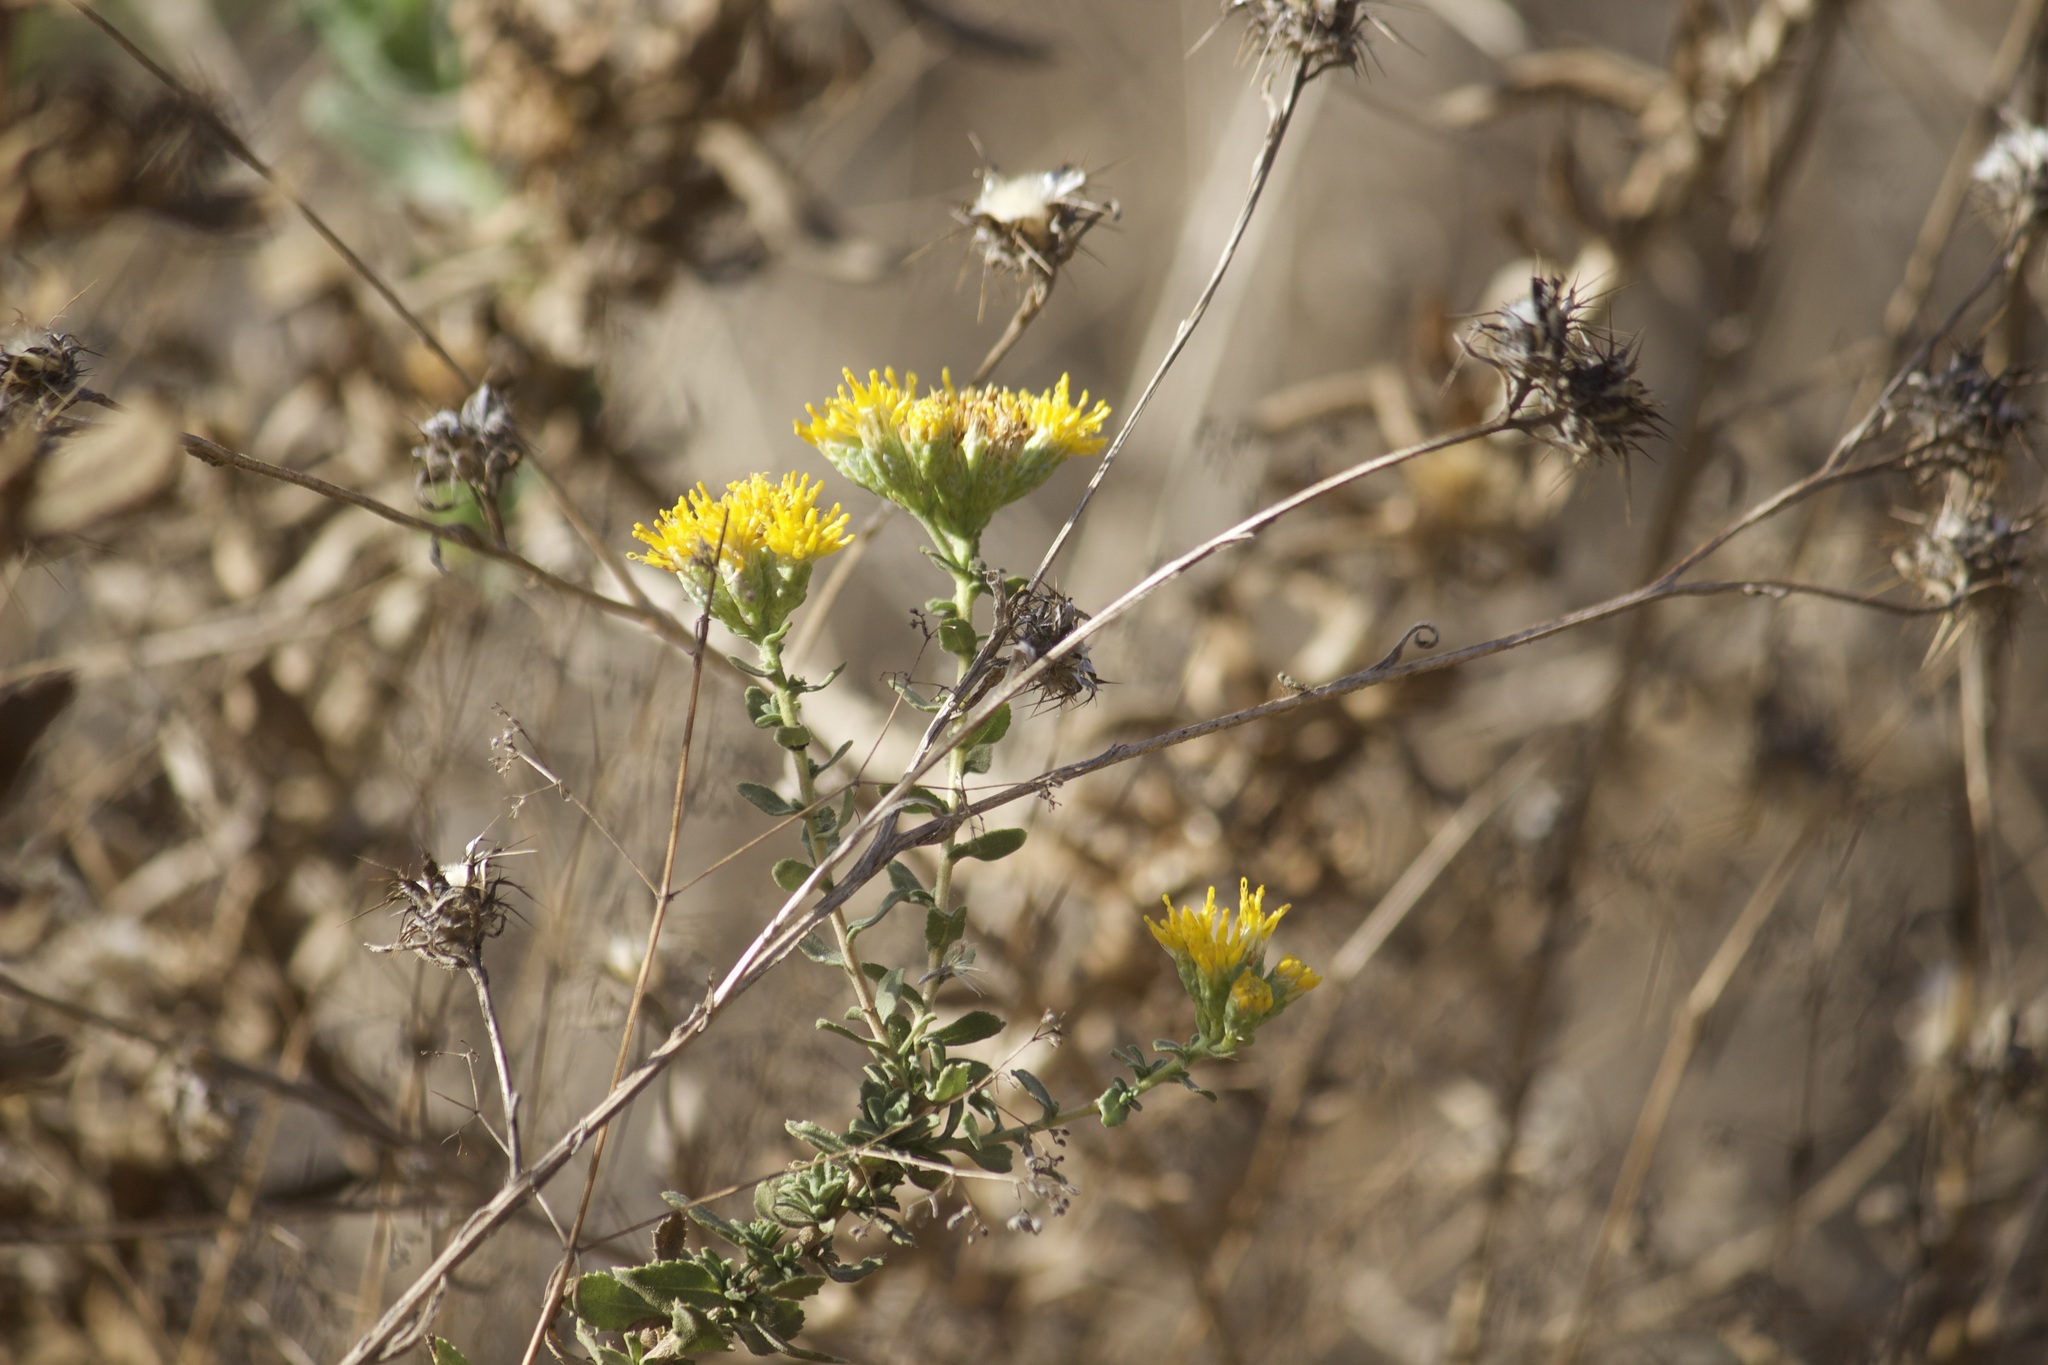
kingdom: Plantae
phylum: Tracheophyta
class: Magnoliopsida
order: Asterales
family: Asteraceae
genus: Isocoma
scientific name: Isocoma menziesii
